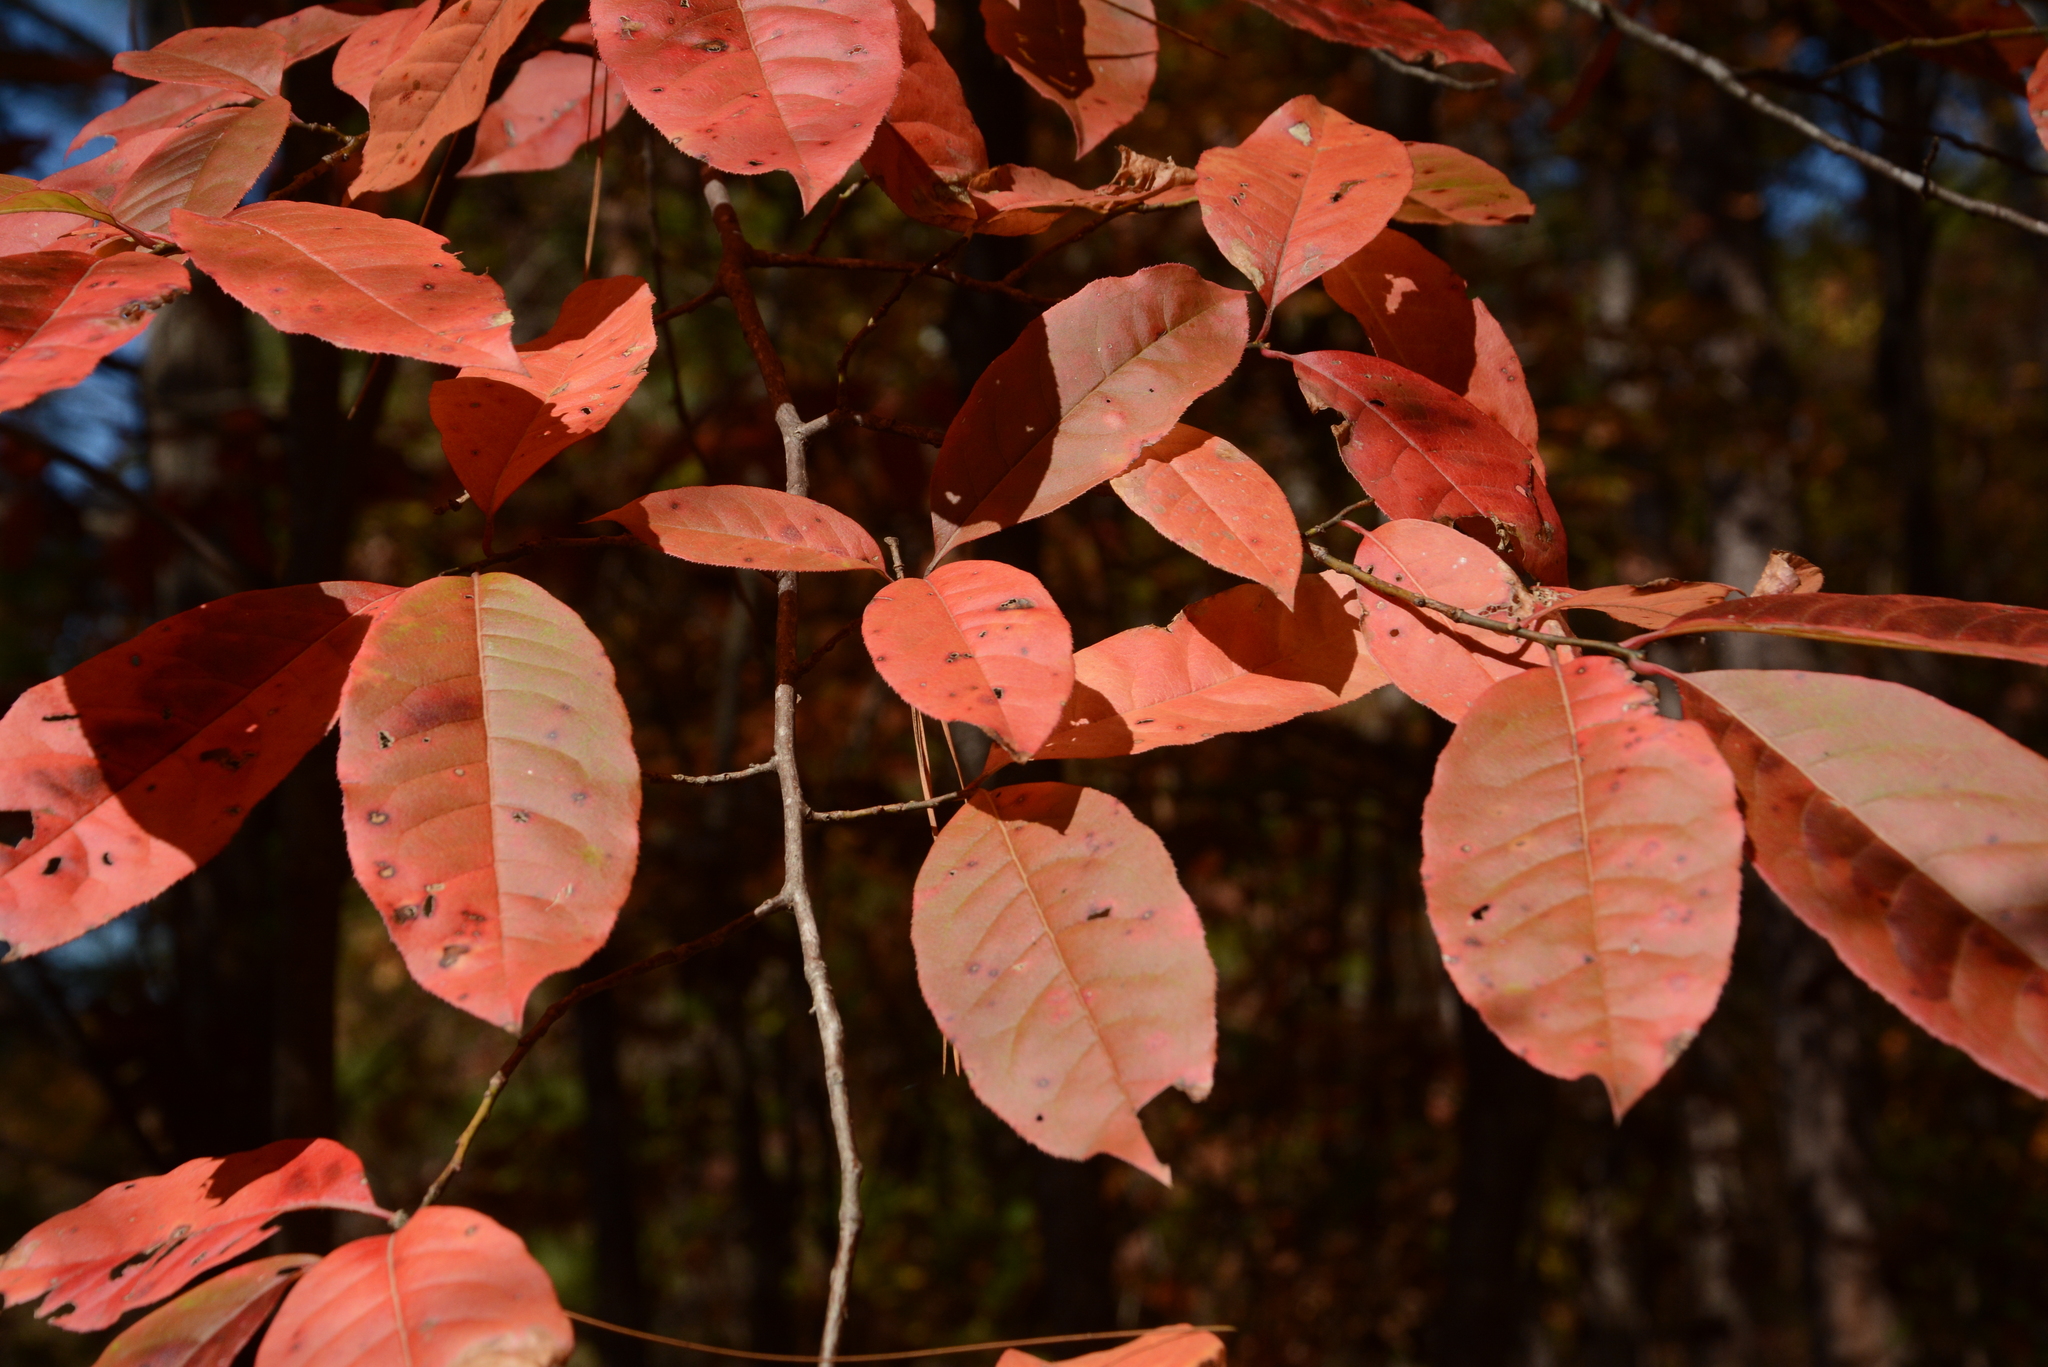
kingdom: Plantae
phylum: Tracheophyta
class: Magnoliopsida
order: Ericales
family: Ericaceae
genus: Oxydendrum
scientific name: Oxydendrum arboreum
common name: Sourwood
